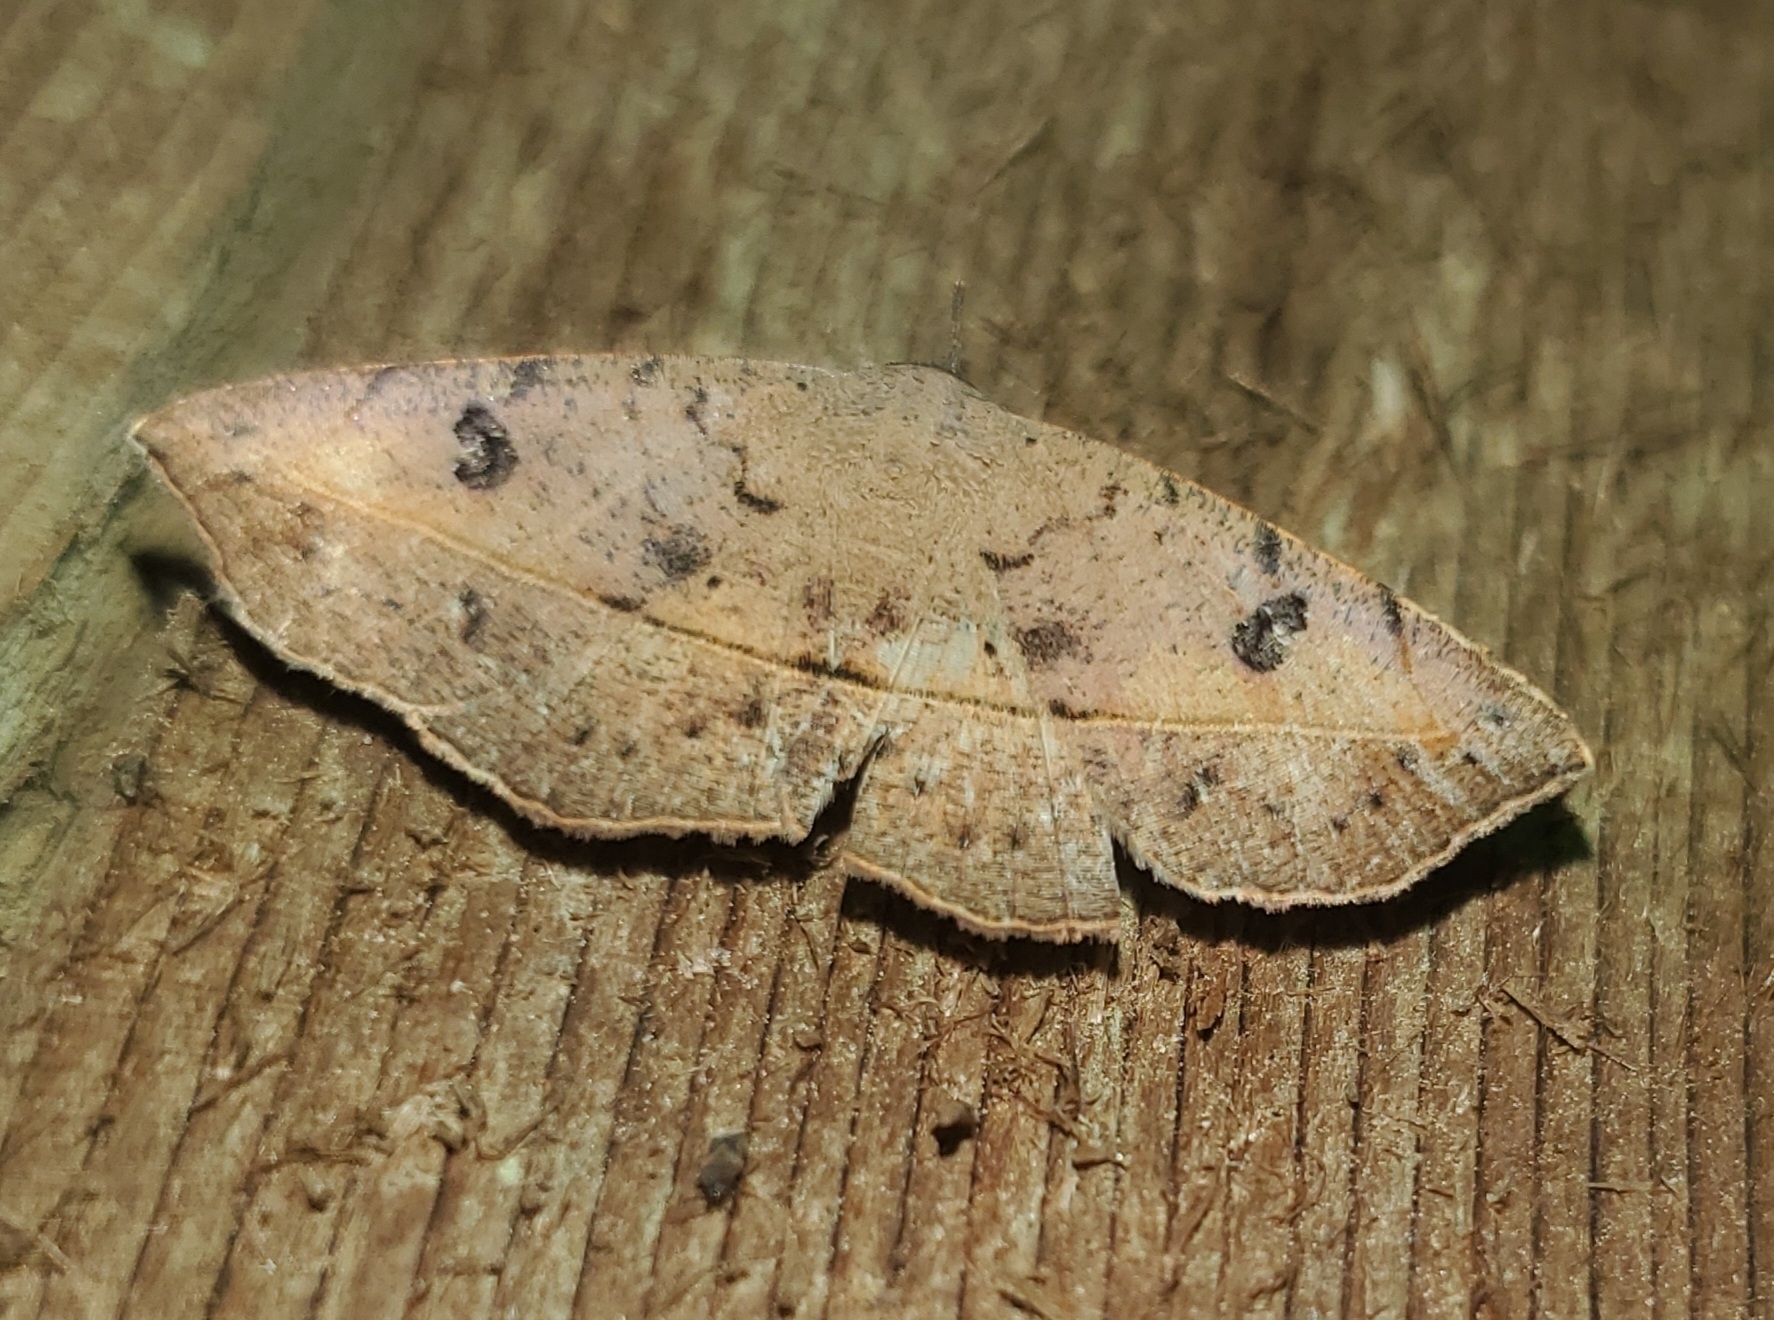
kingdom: Animalia
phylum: Arthropoda
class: Insecta
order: Lepidoptera
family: Erebidae
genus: Metallata
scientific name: Metallata absumens
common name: Brown leaf mimic
